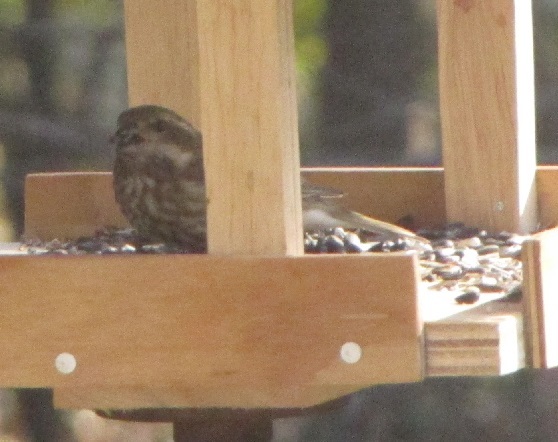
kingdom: Animalia
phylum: Chordata
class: Aves
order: Passeriformes
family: Fringillidae
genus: Haemorhous
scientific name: Haemorhous purpureus
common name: Purple finch
